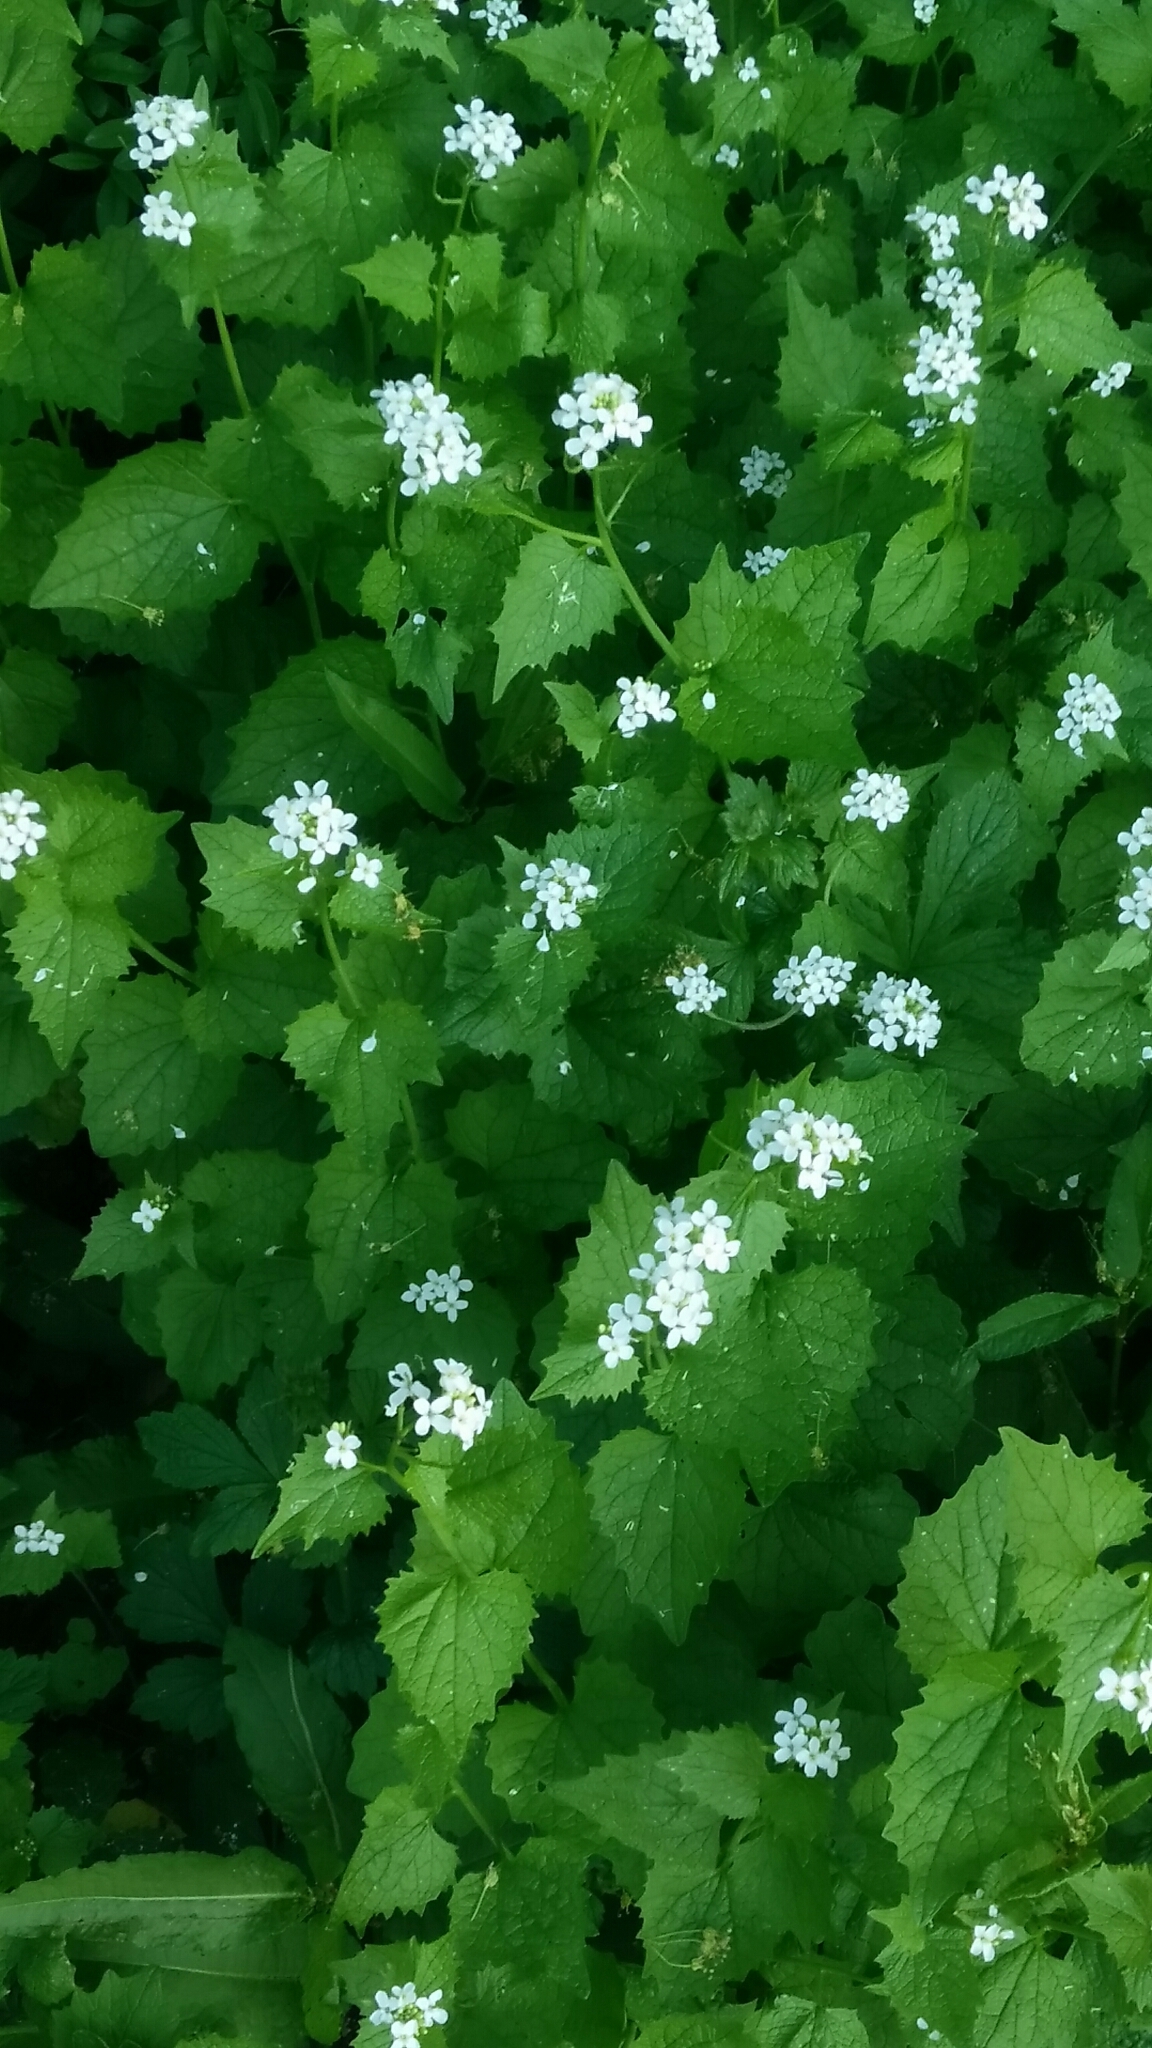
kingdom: Plantae
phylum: Tracheophyta
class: Magnoliopsida
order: Brassicales
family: Brassicaceae
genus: Alliaria
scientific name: Alliaria petiolata
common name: Garlic mustard
